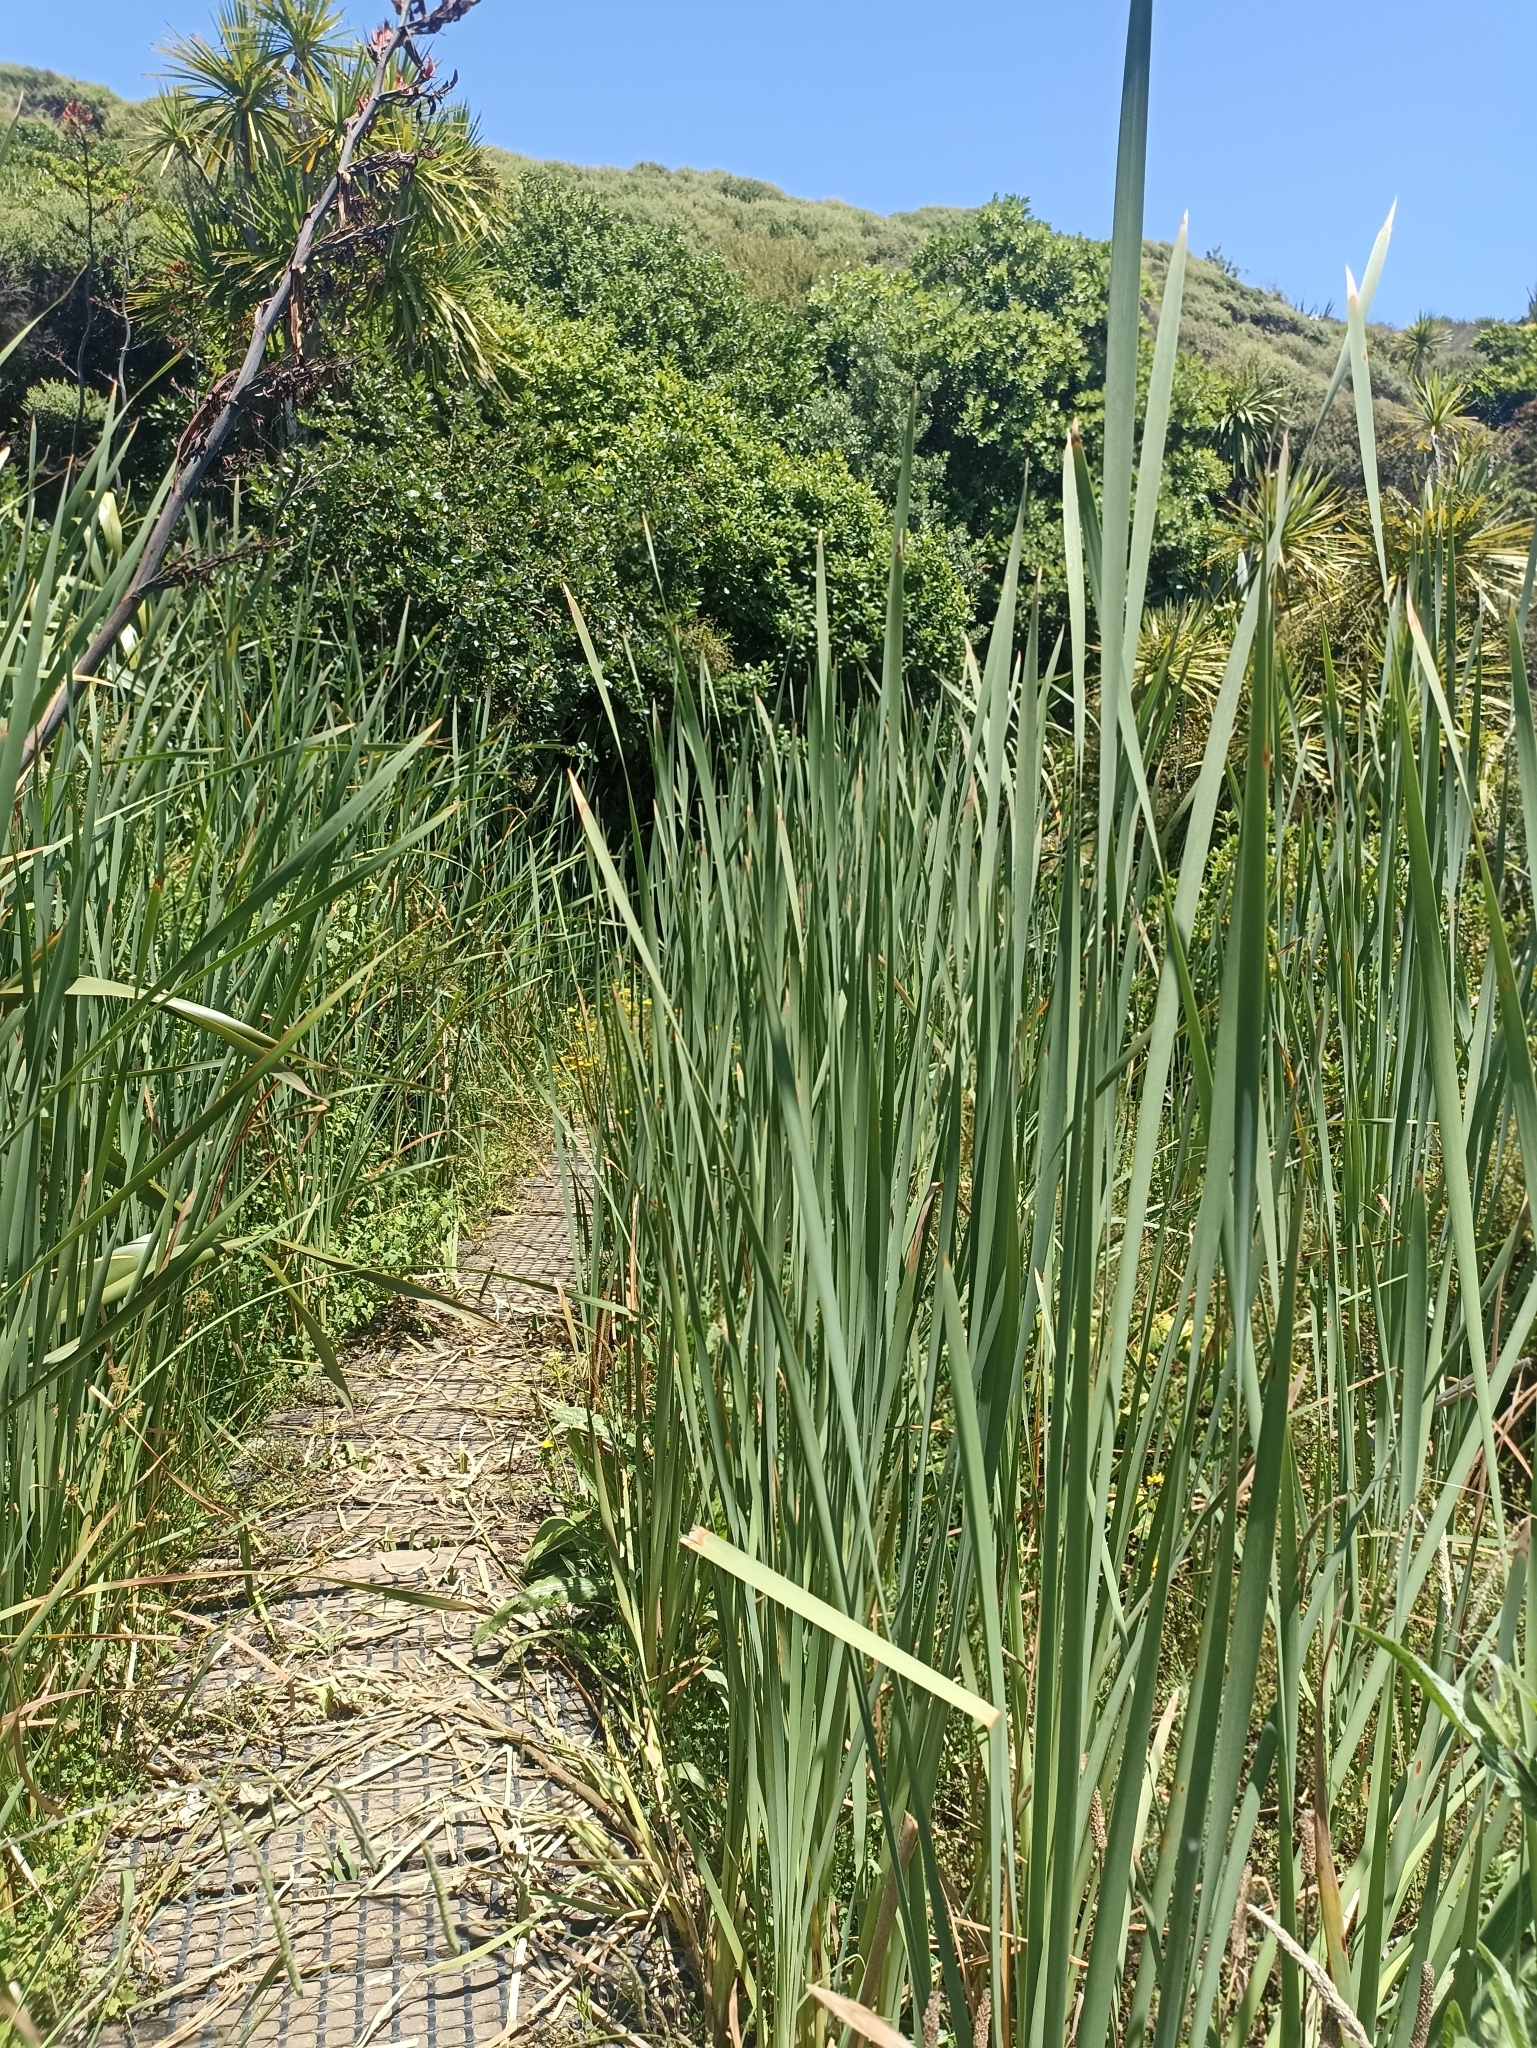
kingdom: Plantae
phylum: Tracheophyta
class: Liliopsida
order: Poales
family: Typhaceae
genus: Typha
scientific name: Typha orientalis
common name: Bullrush
